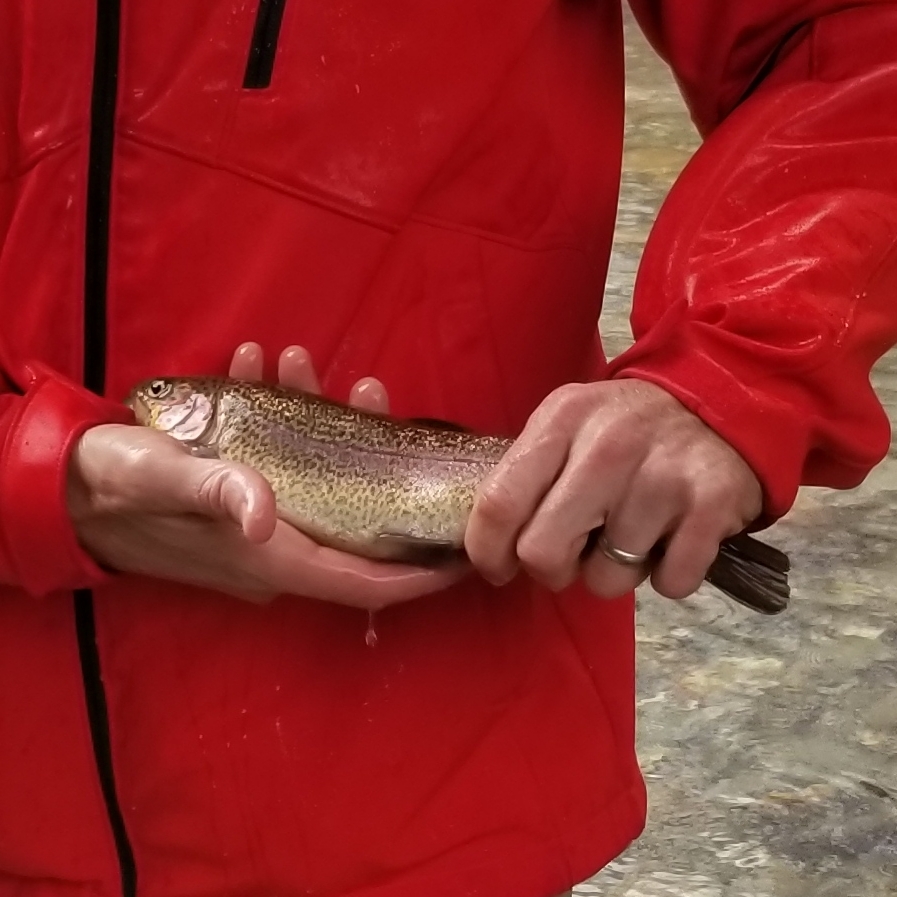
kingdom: Animalia
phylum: Chordata
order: Salmoniformes
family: Salmonidae
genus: Oncorhynchus
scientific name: Oncorhynchus mykiss
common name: Rainbow trout
